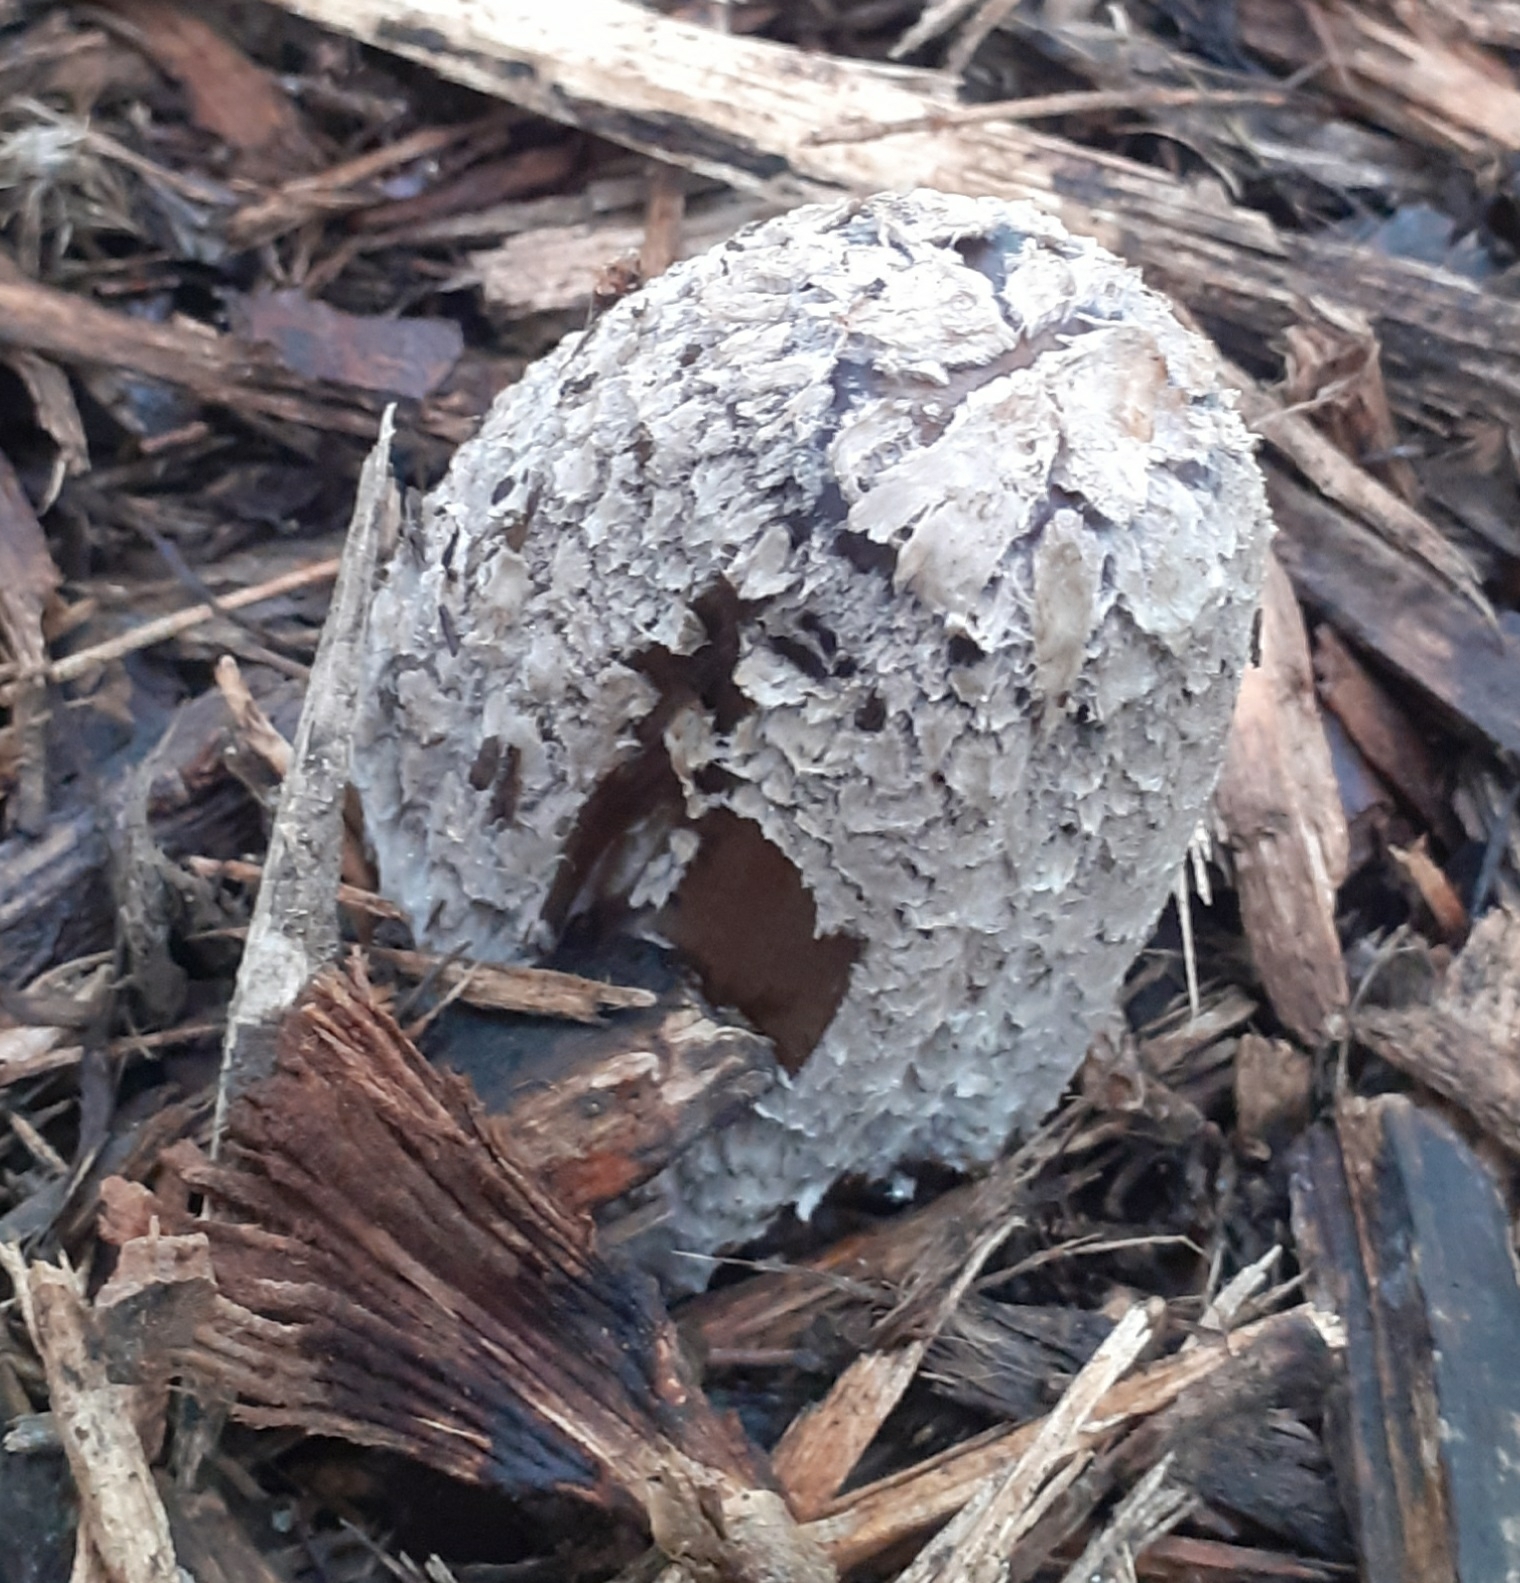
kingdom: Fungi
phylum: Basidiomycota
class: Agaricomycetes
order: Agaricales
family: Psathyrellaceae
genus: Coprinopsis
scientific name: Coprinopsis picacea
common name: Magpie inkcap
